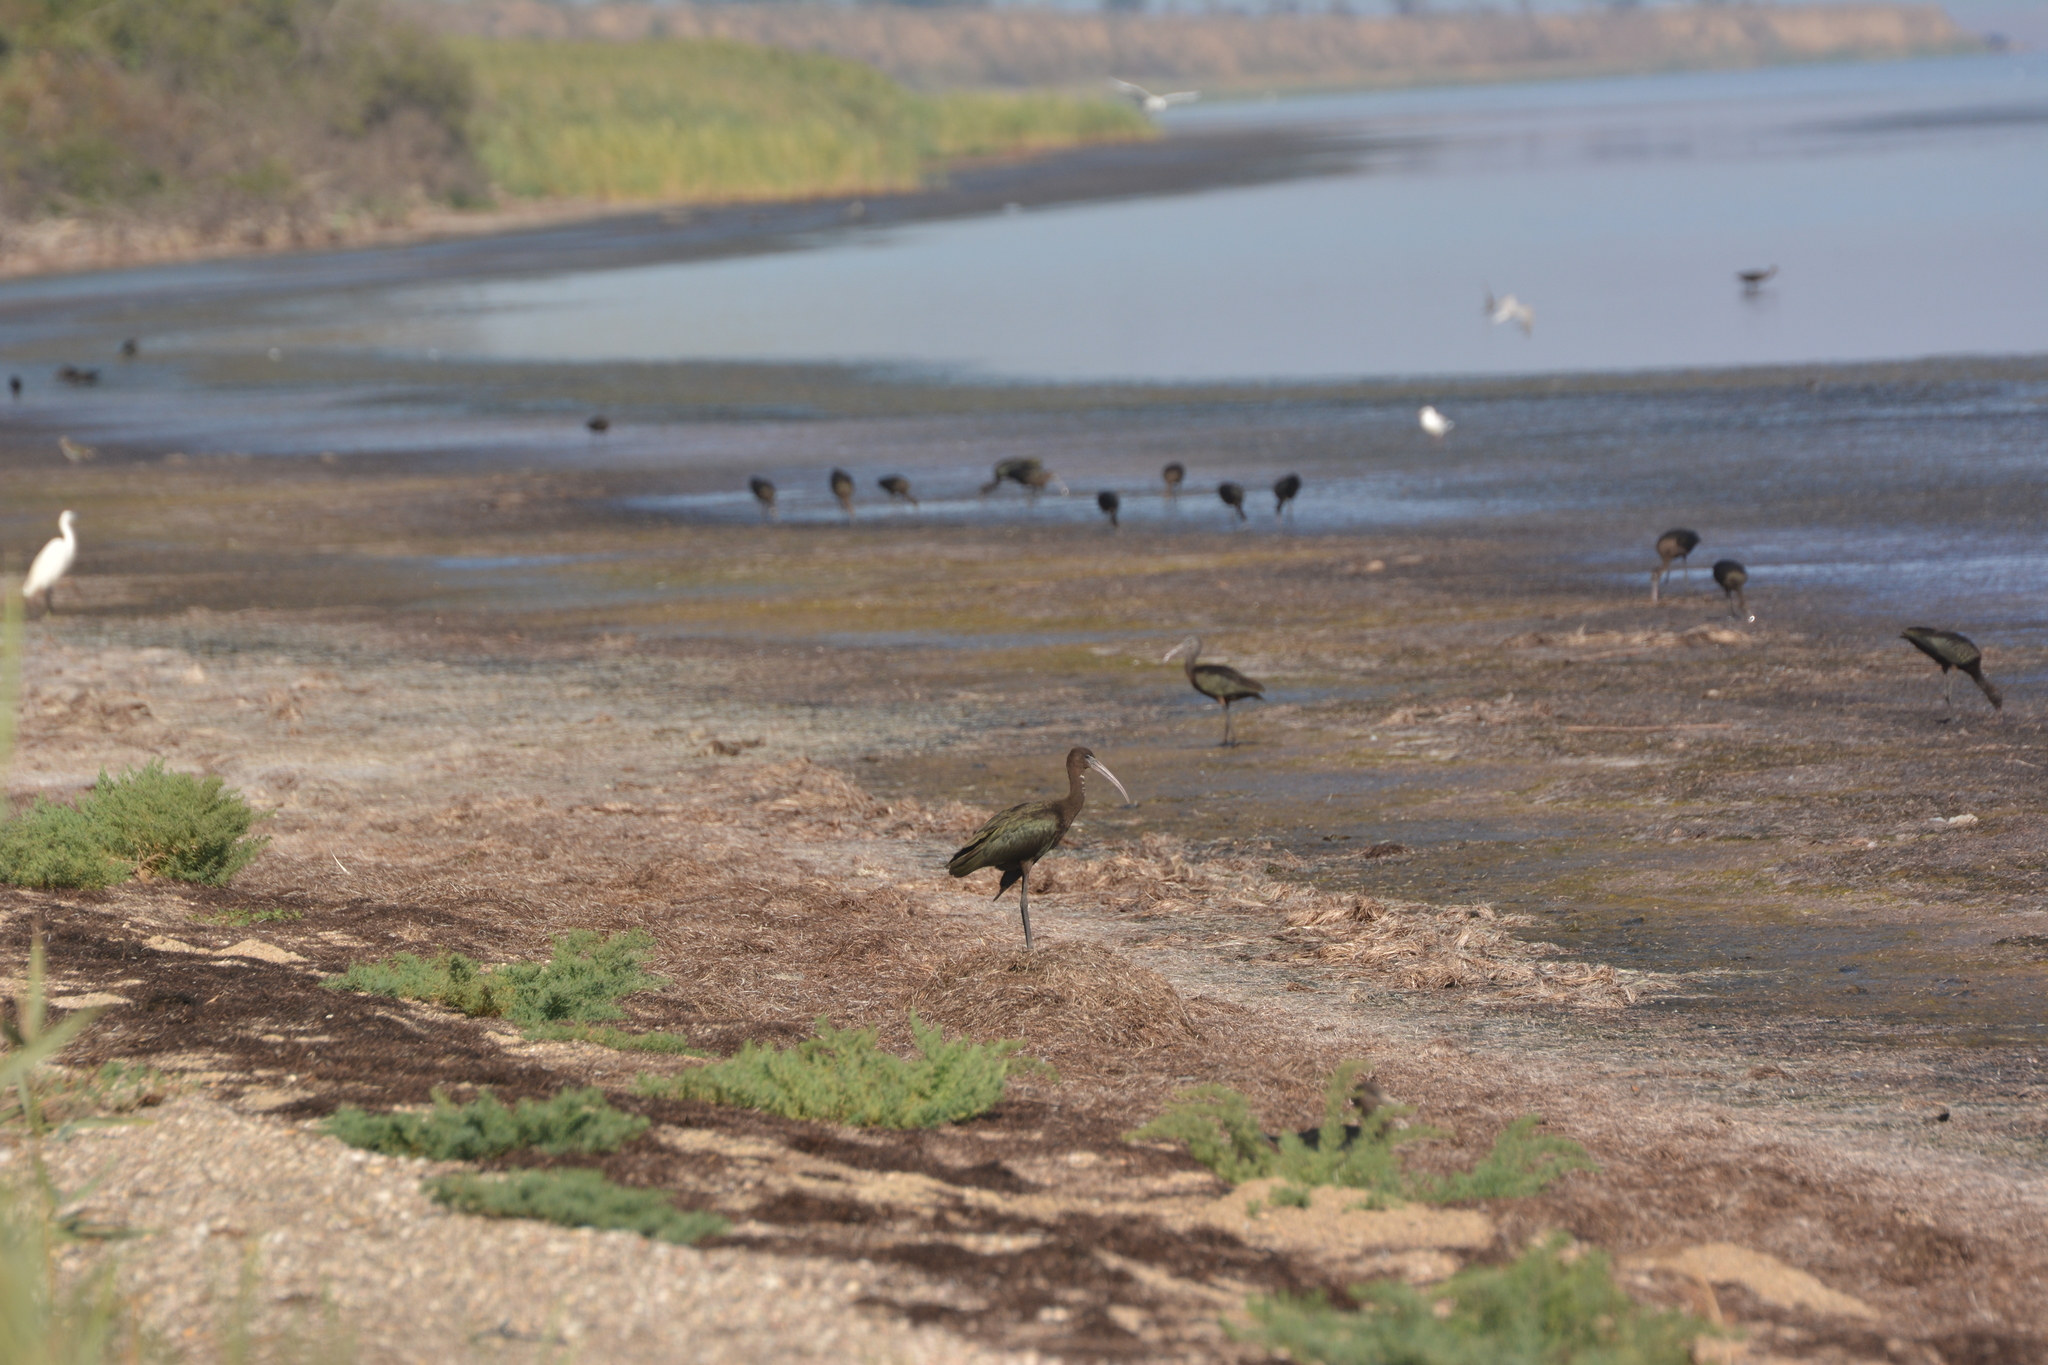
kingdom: Animalia
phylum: Chordata
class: Aves
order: Pelecaniformes
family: Threskiornithidae
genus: Plegadis
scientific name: Plegadis falcinellus
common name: Glossy ibis
